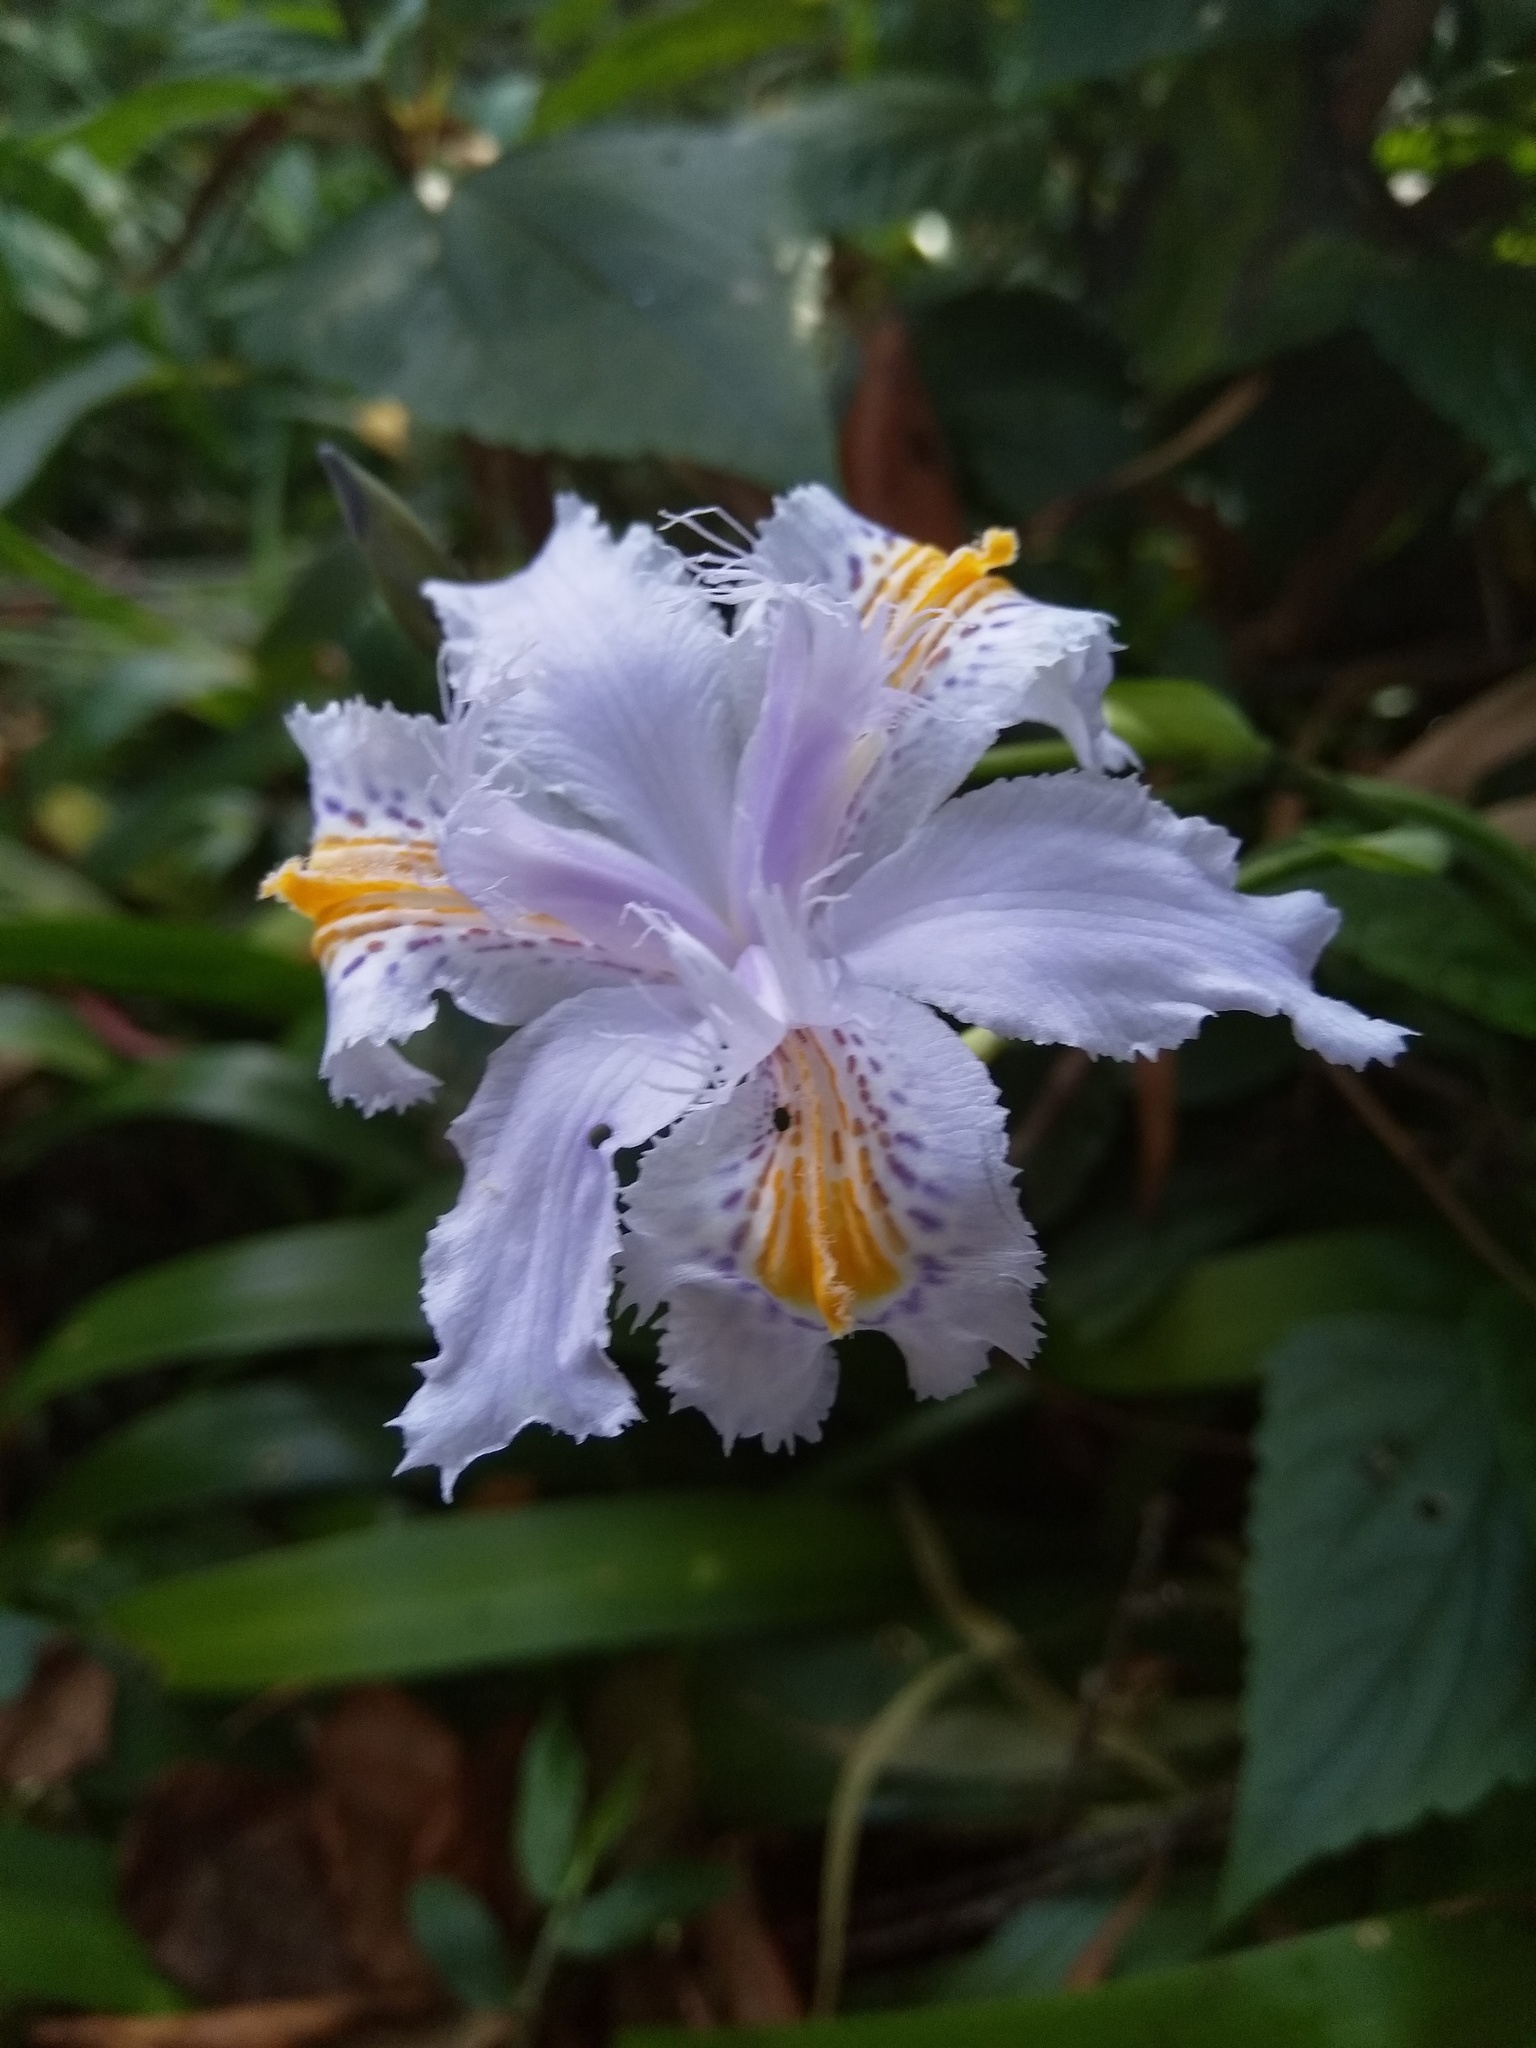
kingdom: Plantae
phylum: Tracheophyta
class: Liliopsida
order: Asparagales
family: Iridaceae
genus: Iris
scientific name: Iris japonica
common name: Butterfly-flower
